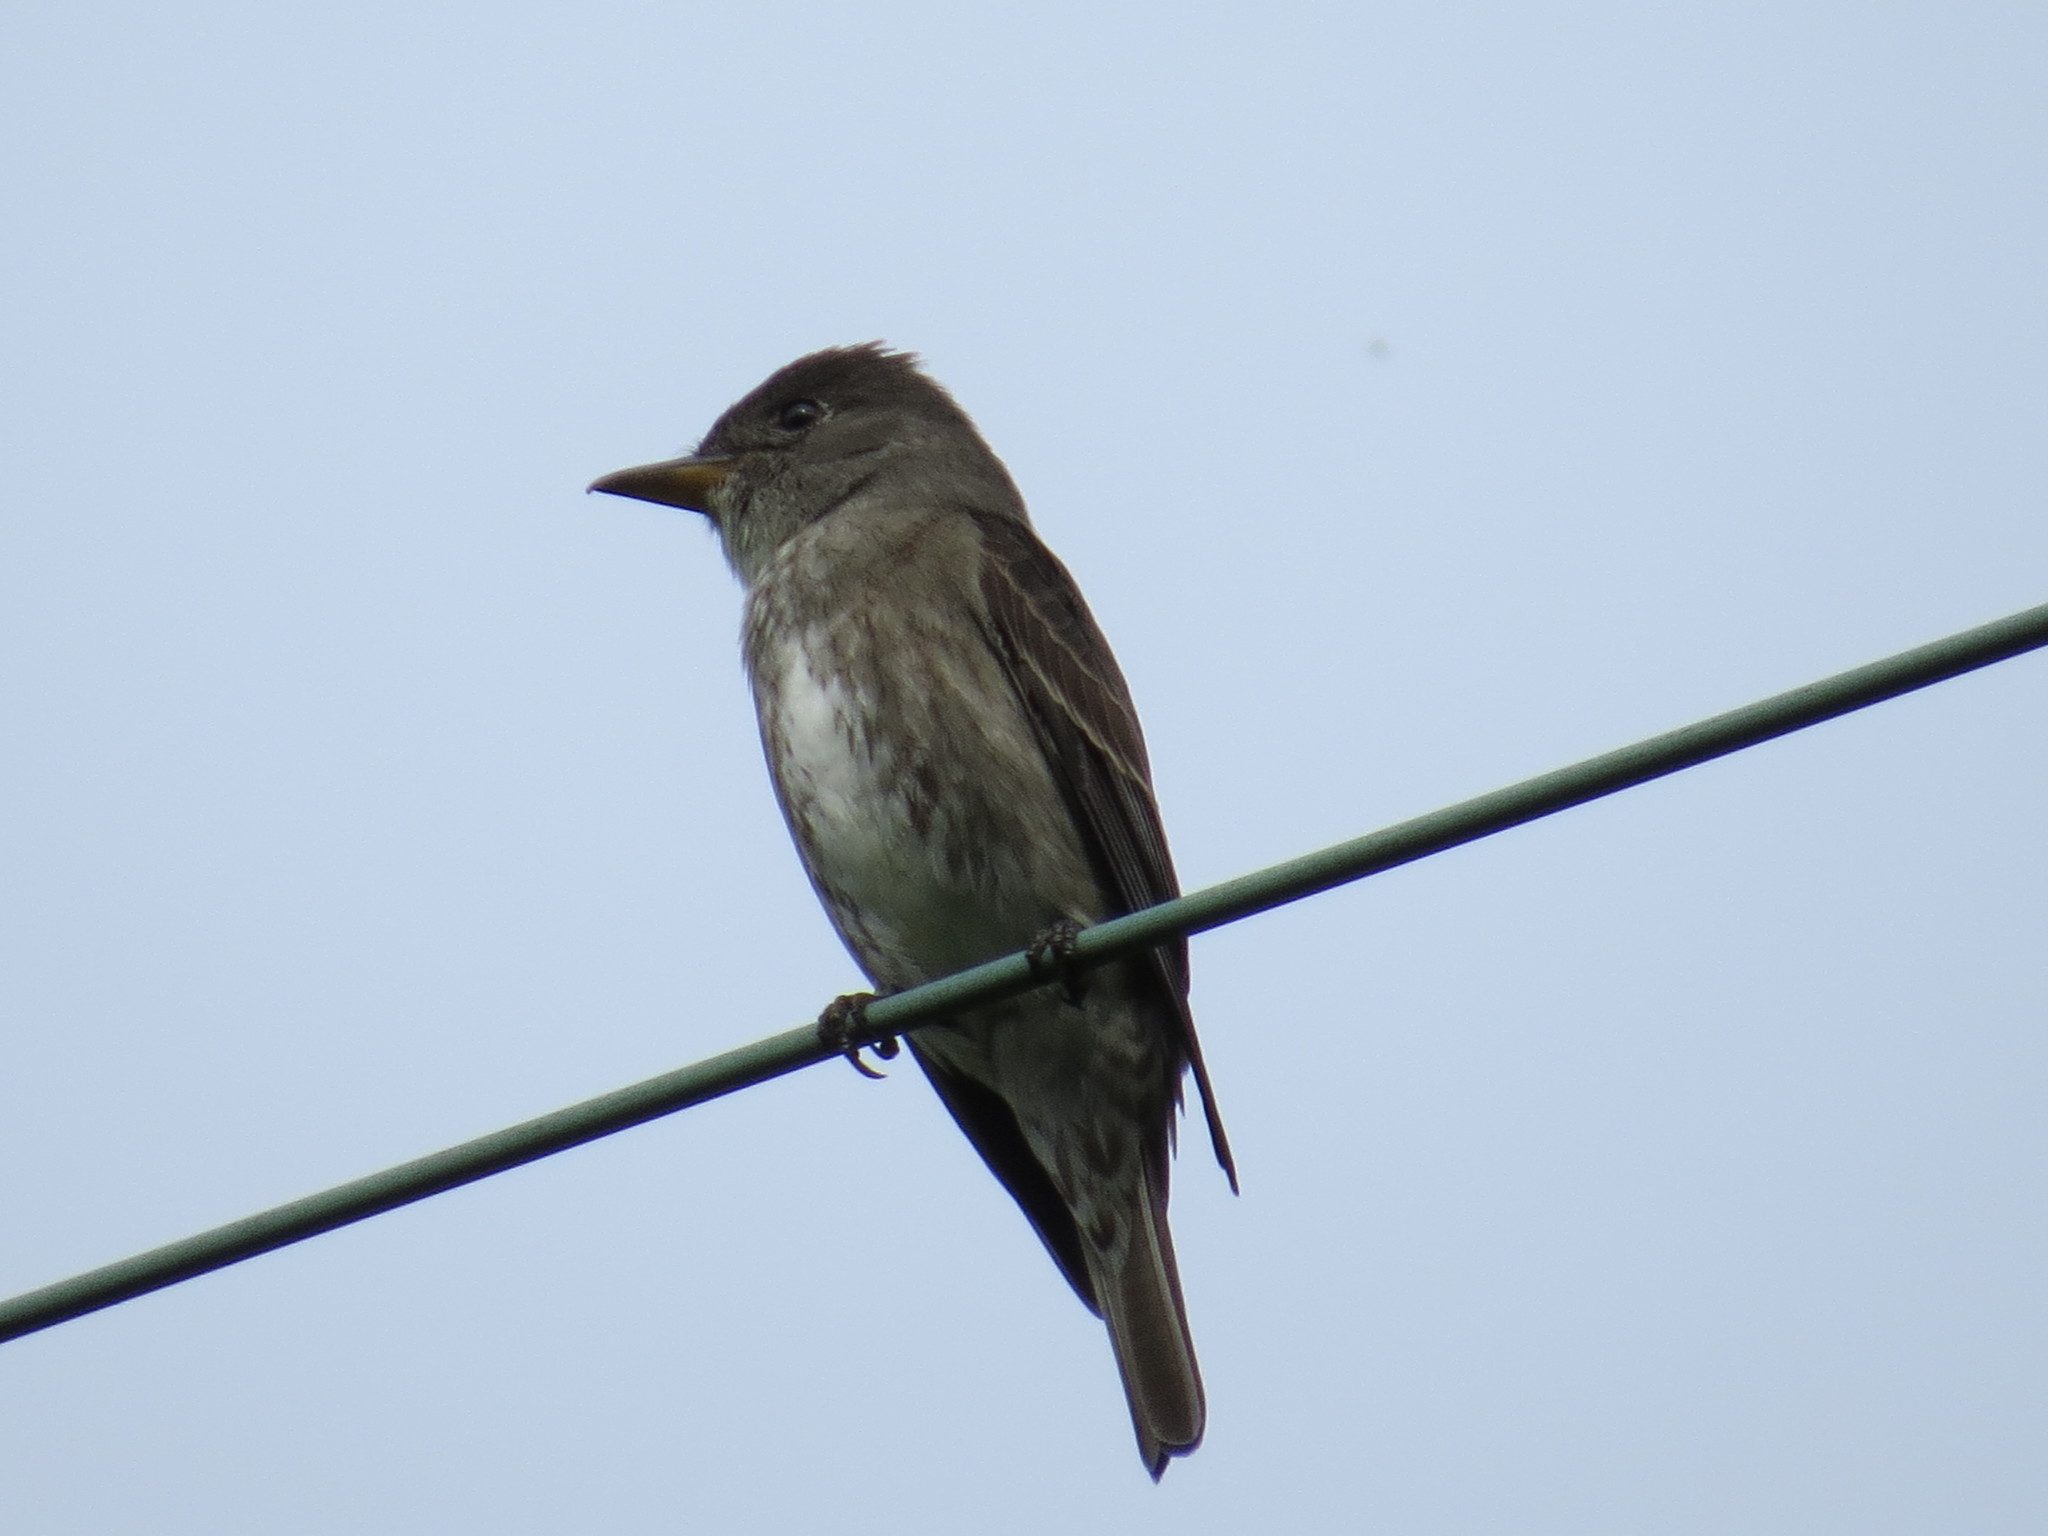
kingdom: Animalia
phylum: Chordata
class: Aves
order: Passeriformes
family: Tyrannidae
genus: Contopus
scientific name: Contopus cooperi
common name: Olive-sided flycatcher
